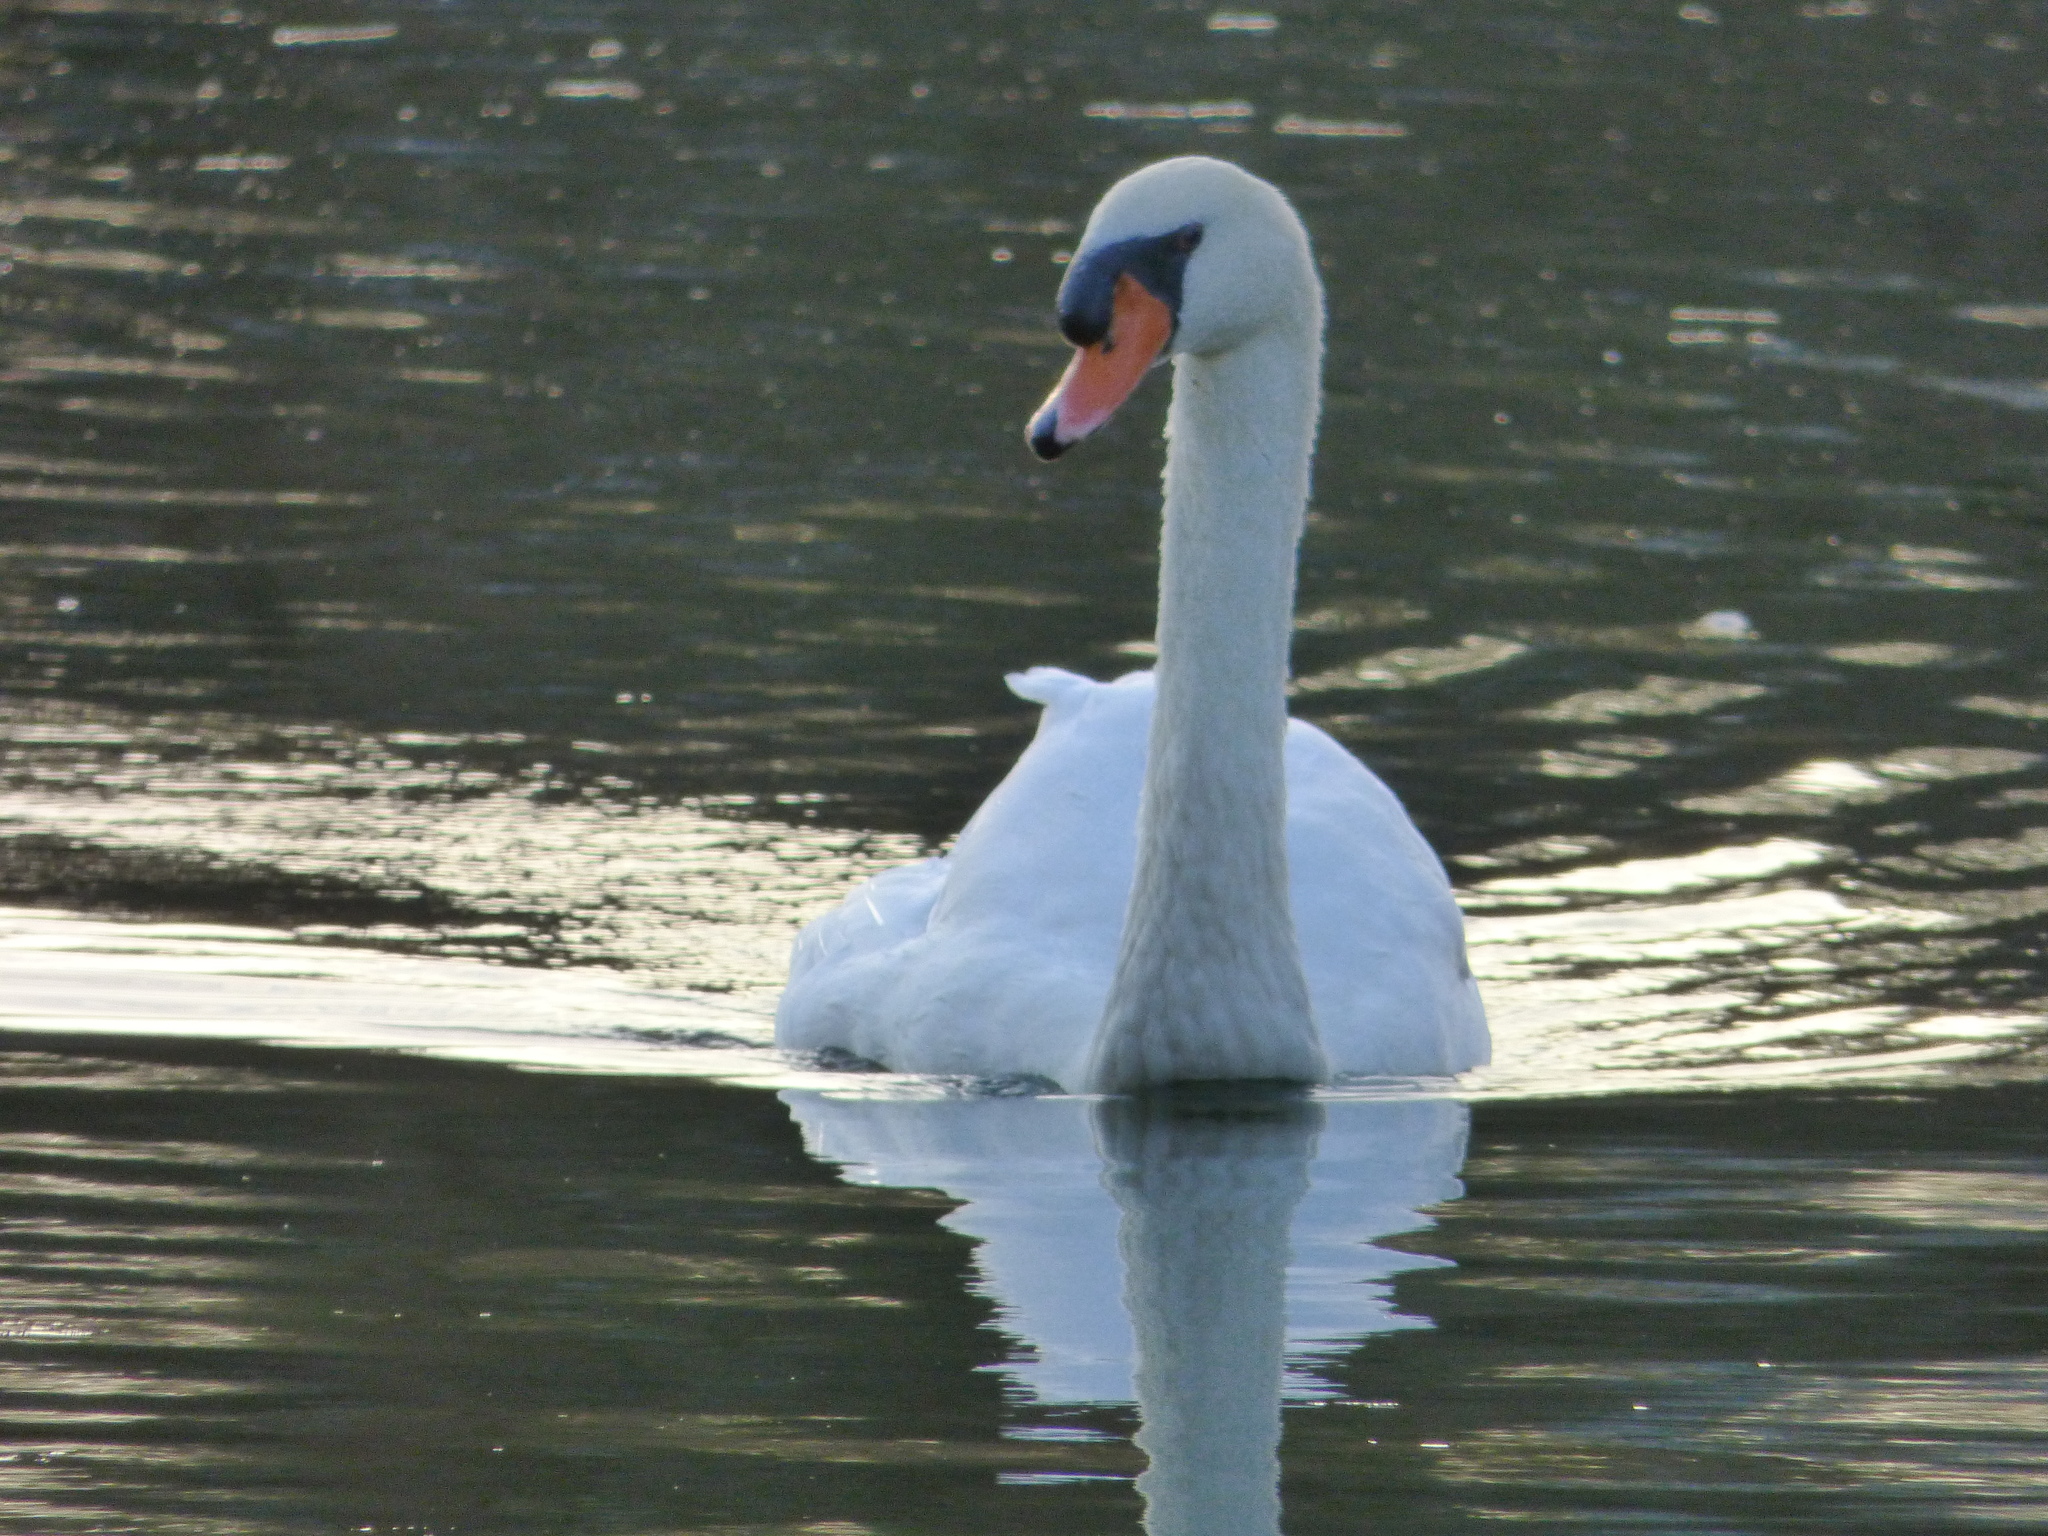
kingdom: Animalia
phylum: Chordata
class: Aves
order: Anseriformes
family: Anatidae
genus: Cygnus
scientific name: Cygnus olor
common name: Mute swan
